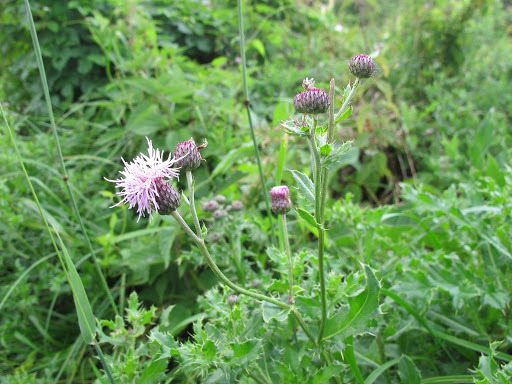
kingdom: Plantae
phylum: Tracheophyta
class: Magnoliopsida
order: Asterales
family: Asteraceae
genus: Cirsium
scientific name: Cirsium arvense
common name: Creeping thistle
